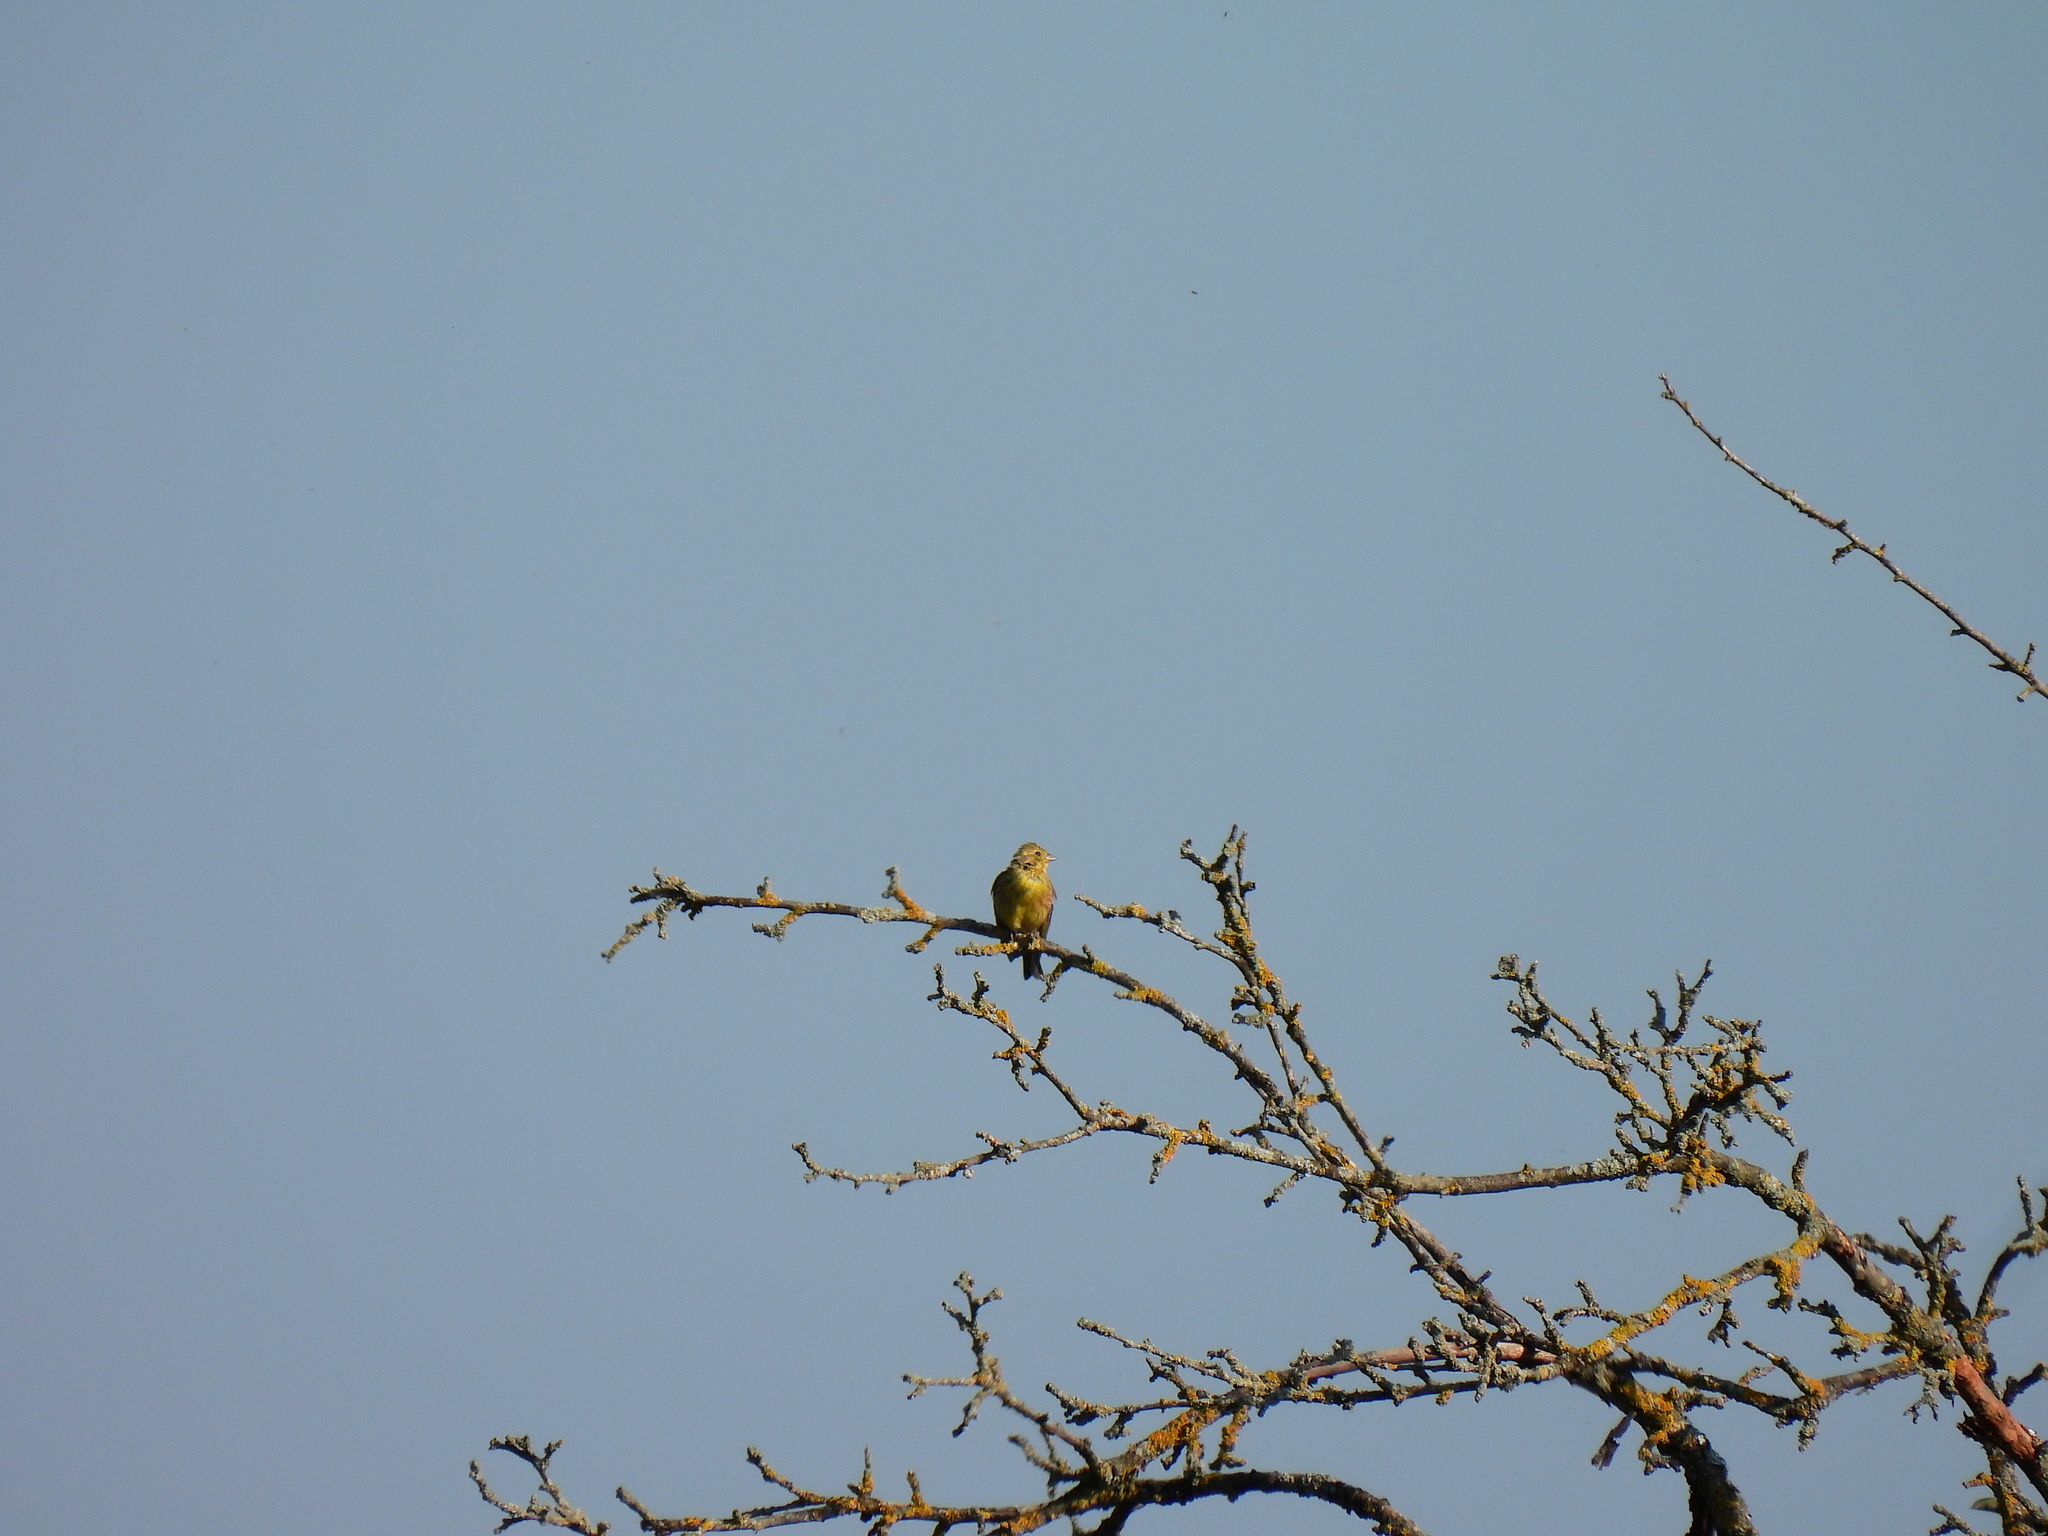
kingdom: Animalia
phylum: Chordata
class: Aves
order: Passeriformes
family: Emberizidae
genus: Emberiza
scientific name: Emberiza citrinella
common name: Yellowhammer
